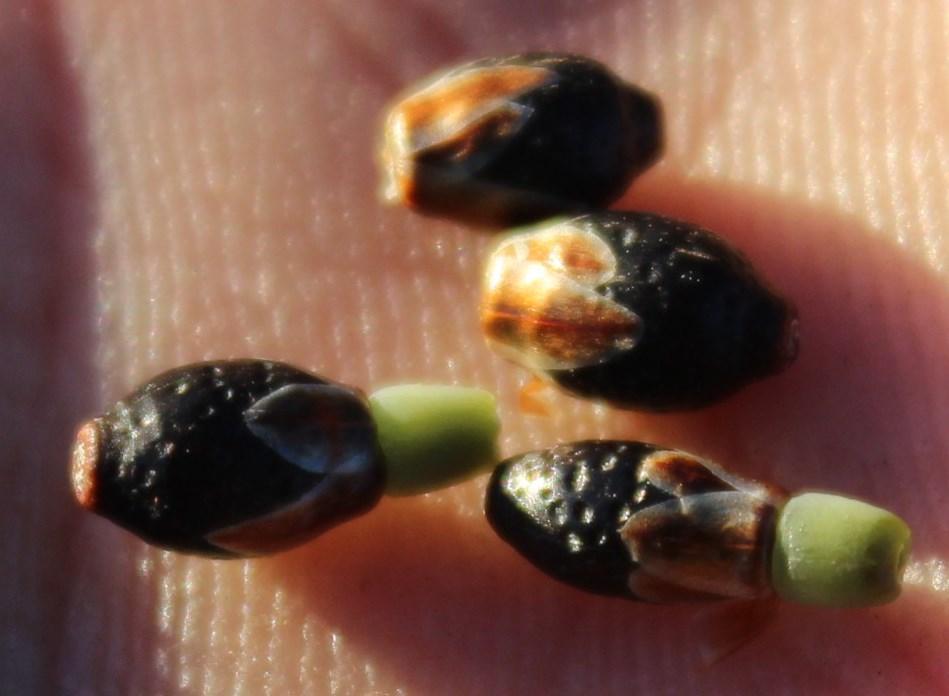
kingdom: Plantae
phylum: Tracheophyta
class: Liliopsida
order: Poales
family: Restionaceae
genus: Willdenowia
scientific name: Willdenowia sulcata
